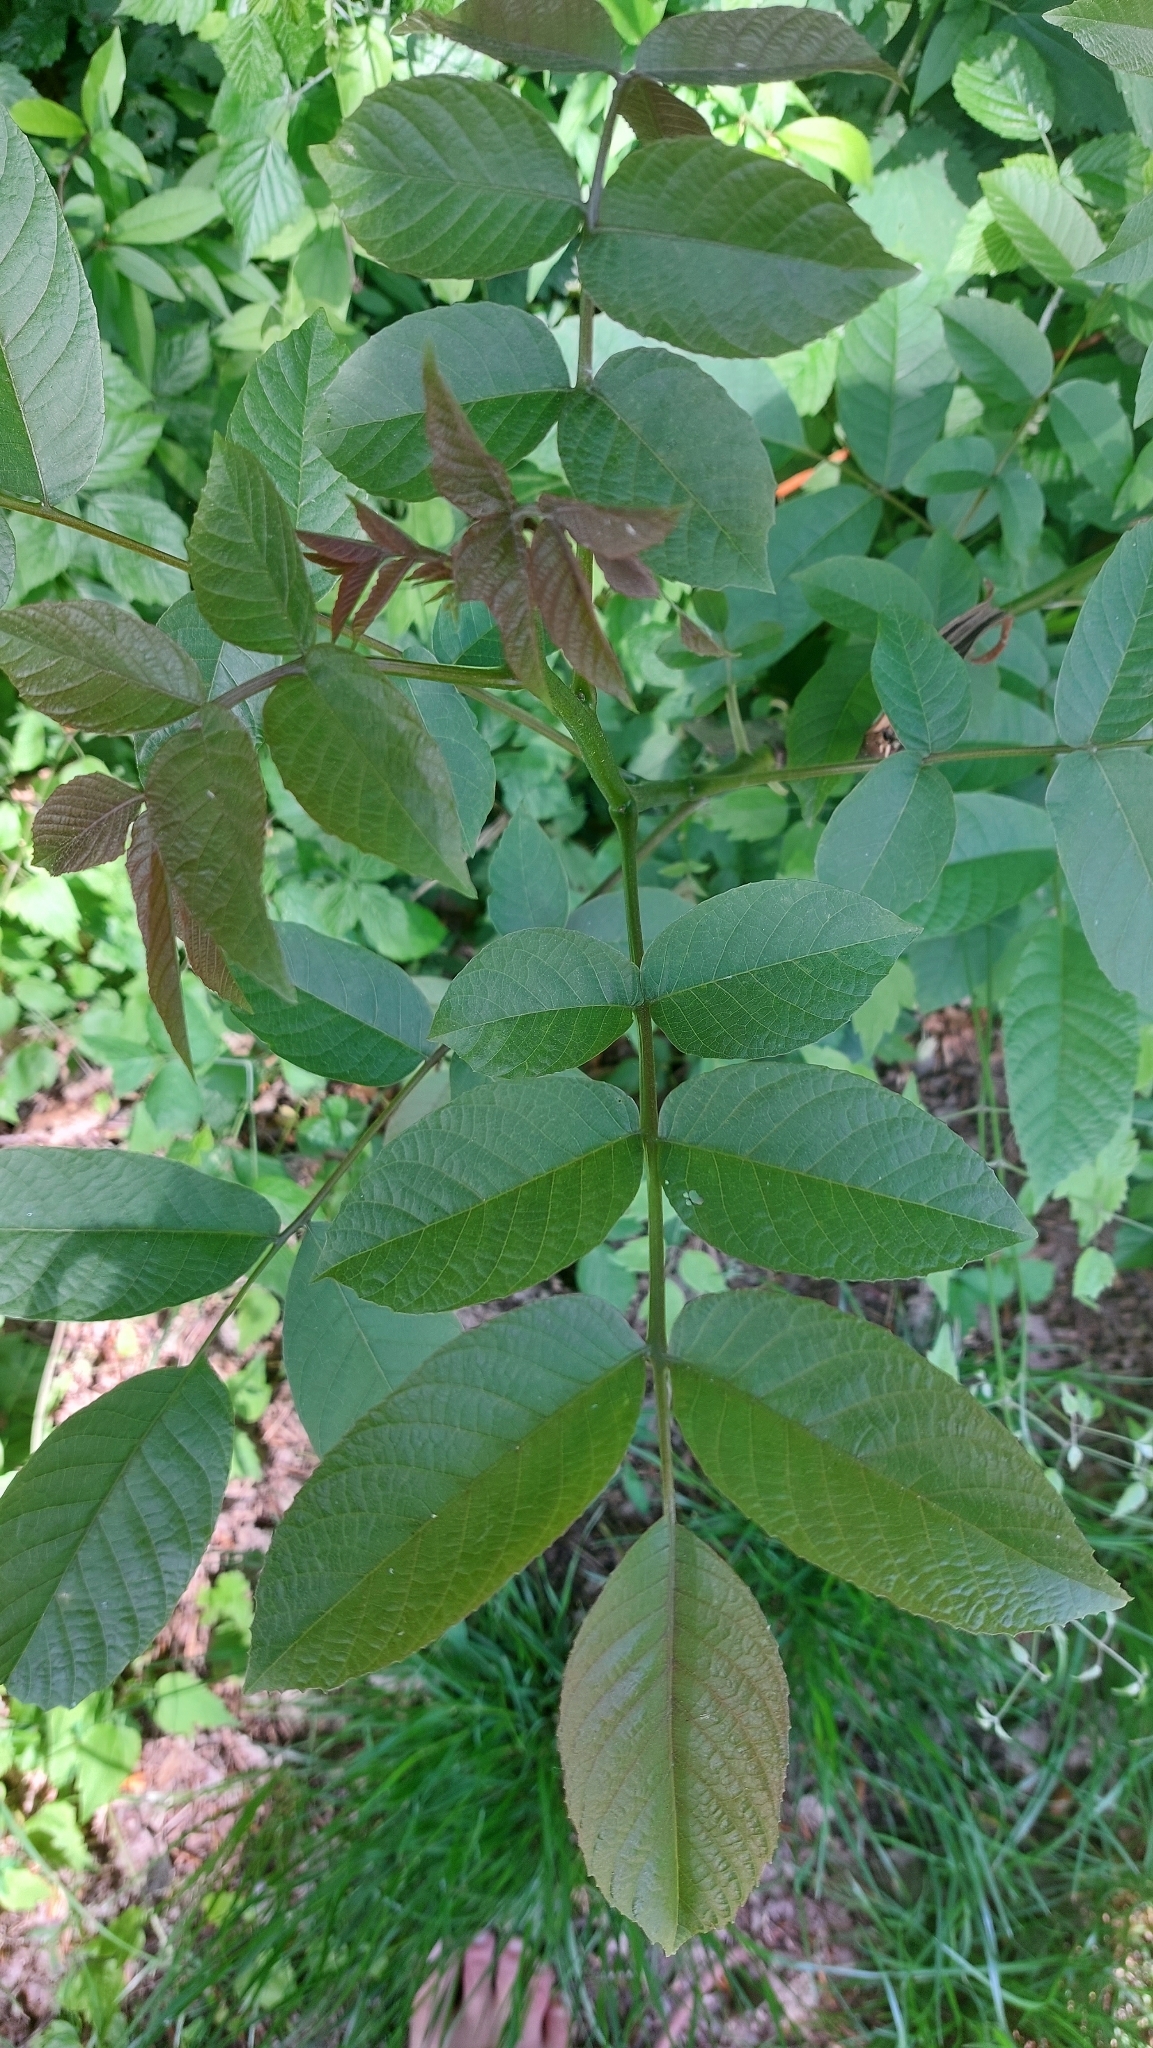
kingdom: Plantae
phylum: Tracheophyta
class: Magnoliopsida
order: Fagales
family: Juglandaceae
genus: Juglans
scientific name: Juglans regia
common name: Walnut
